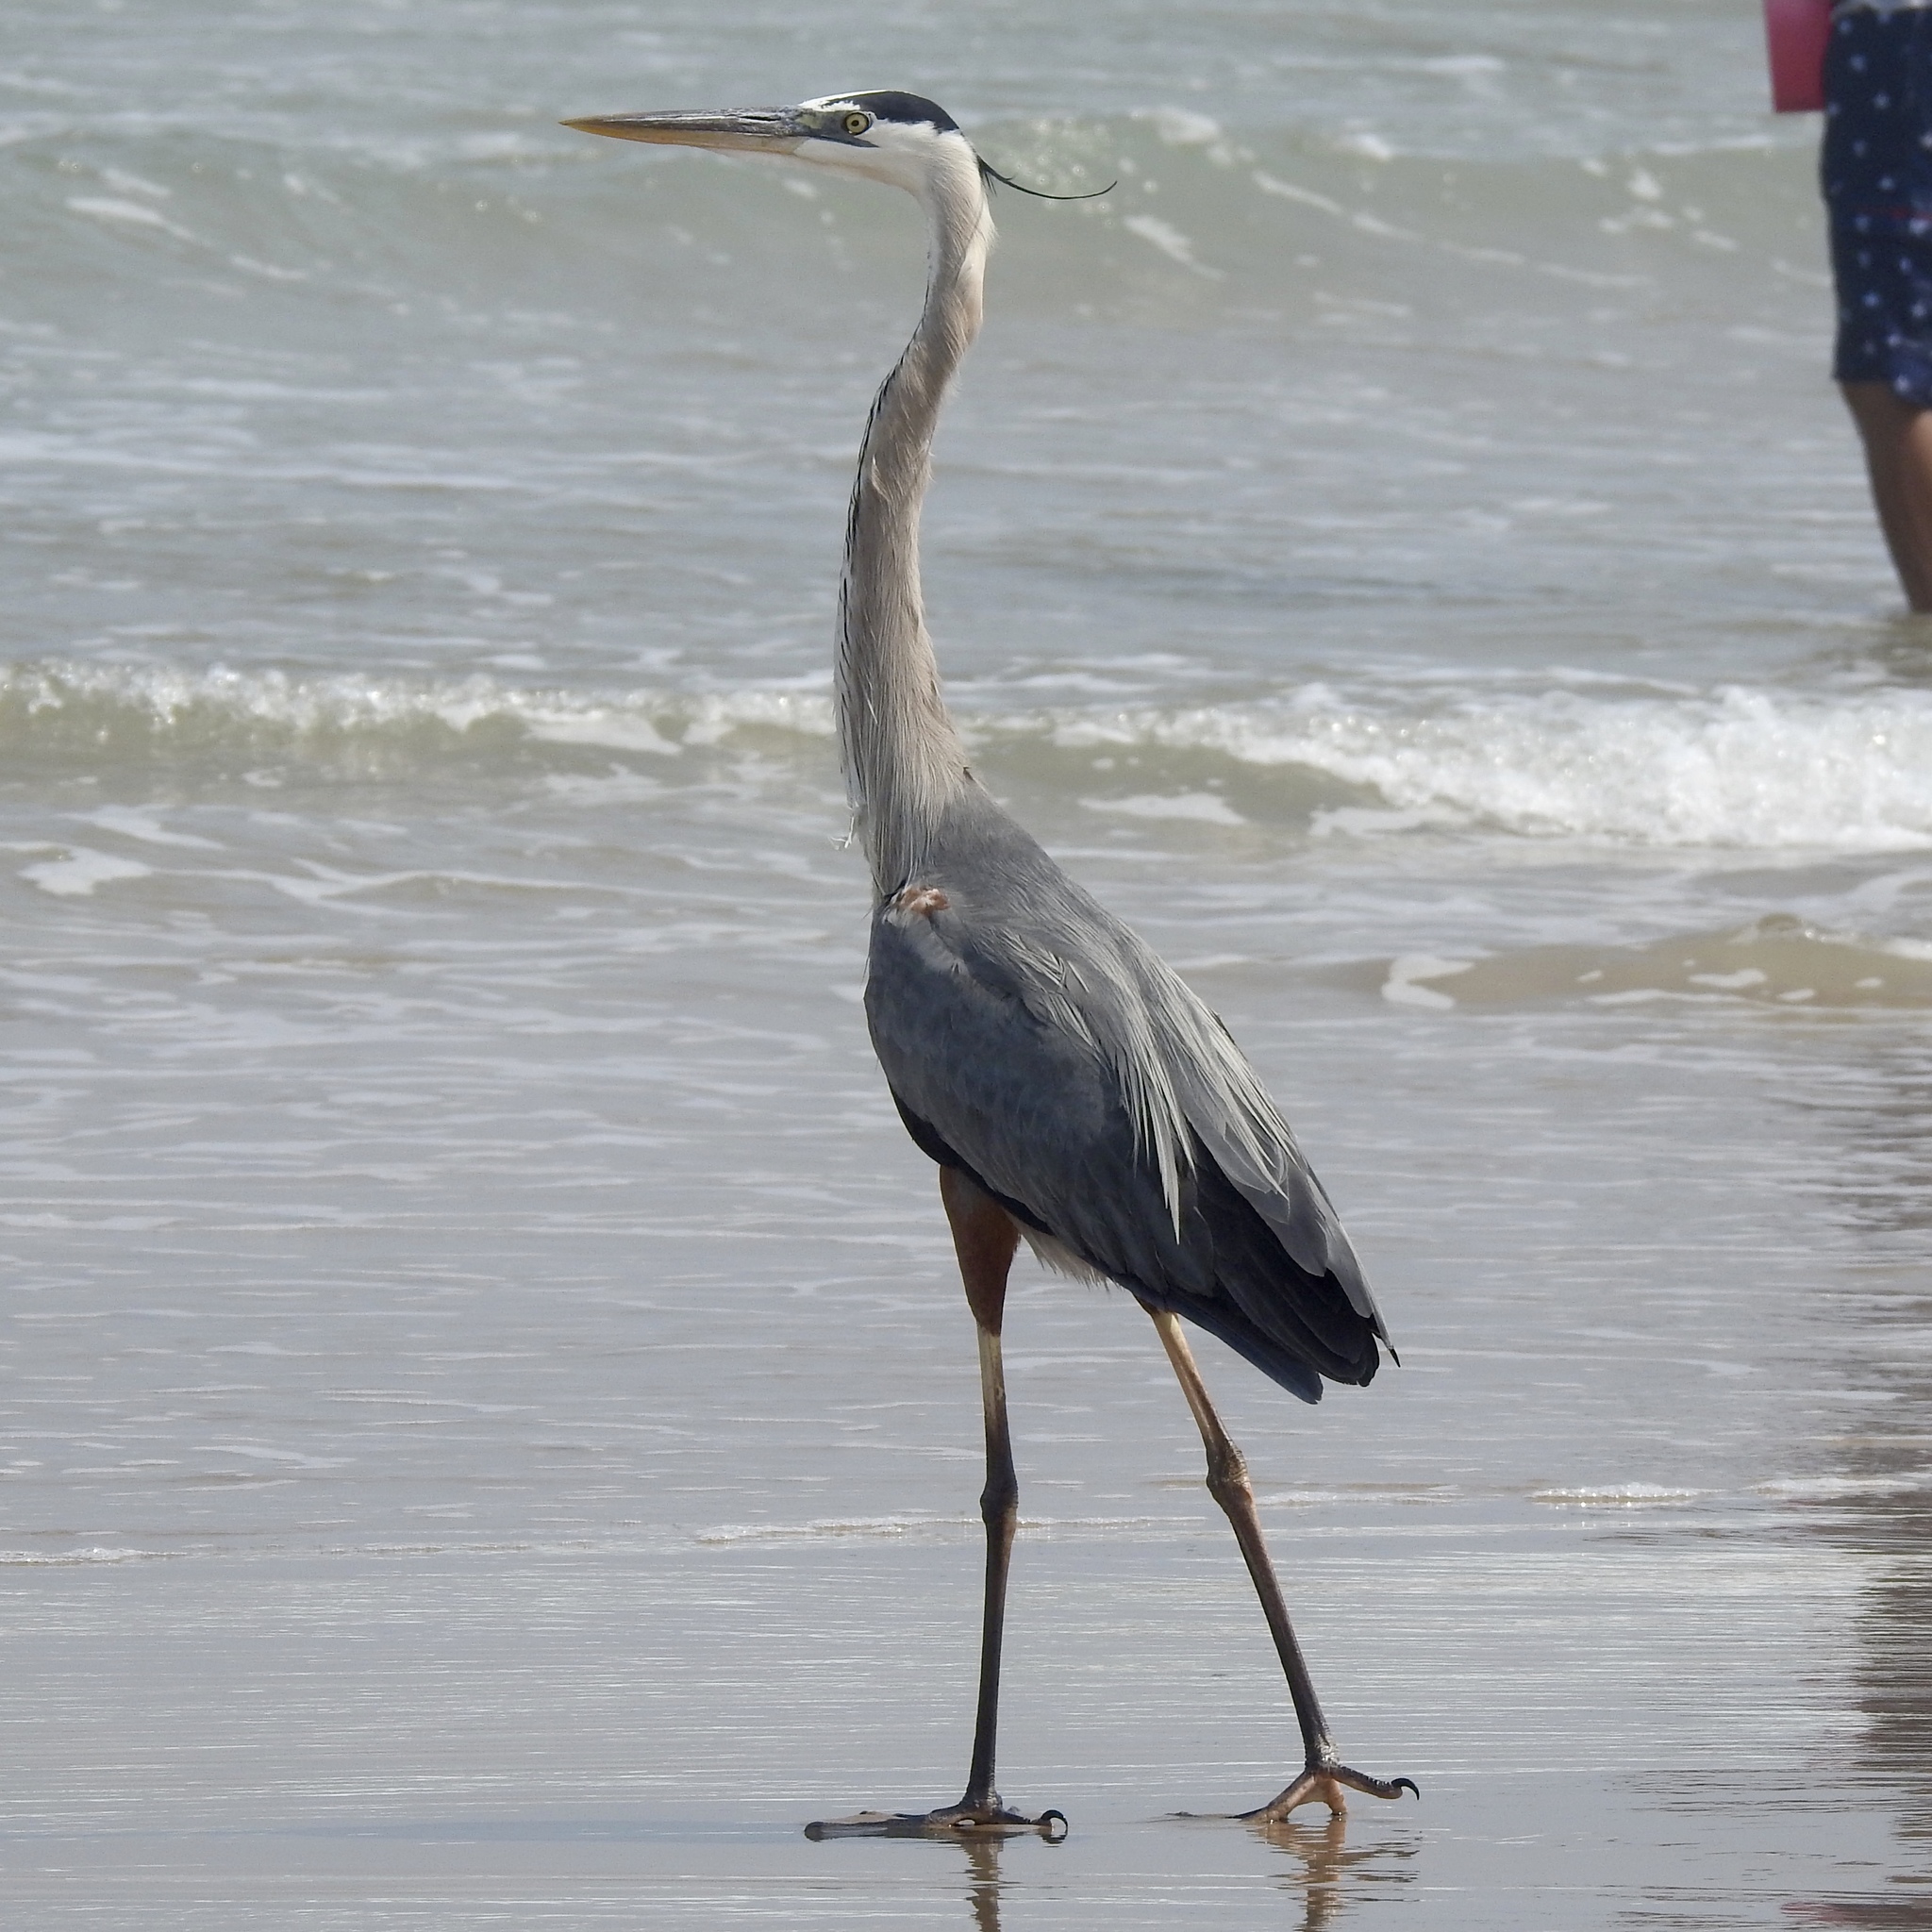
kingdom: Animalia
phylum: Chordata
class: Aves
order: Pelecaniformes
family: Ardeidae
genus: Ardea
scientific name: Ardea herodias
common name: Great blue heron
